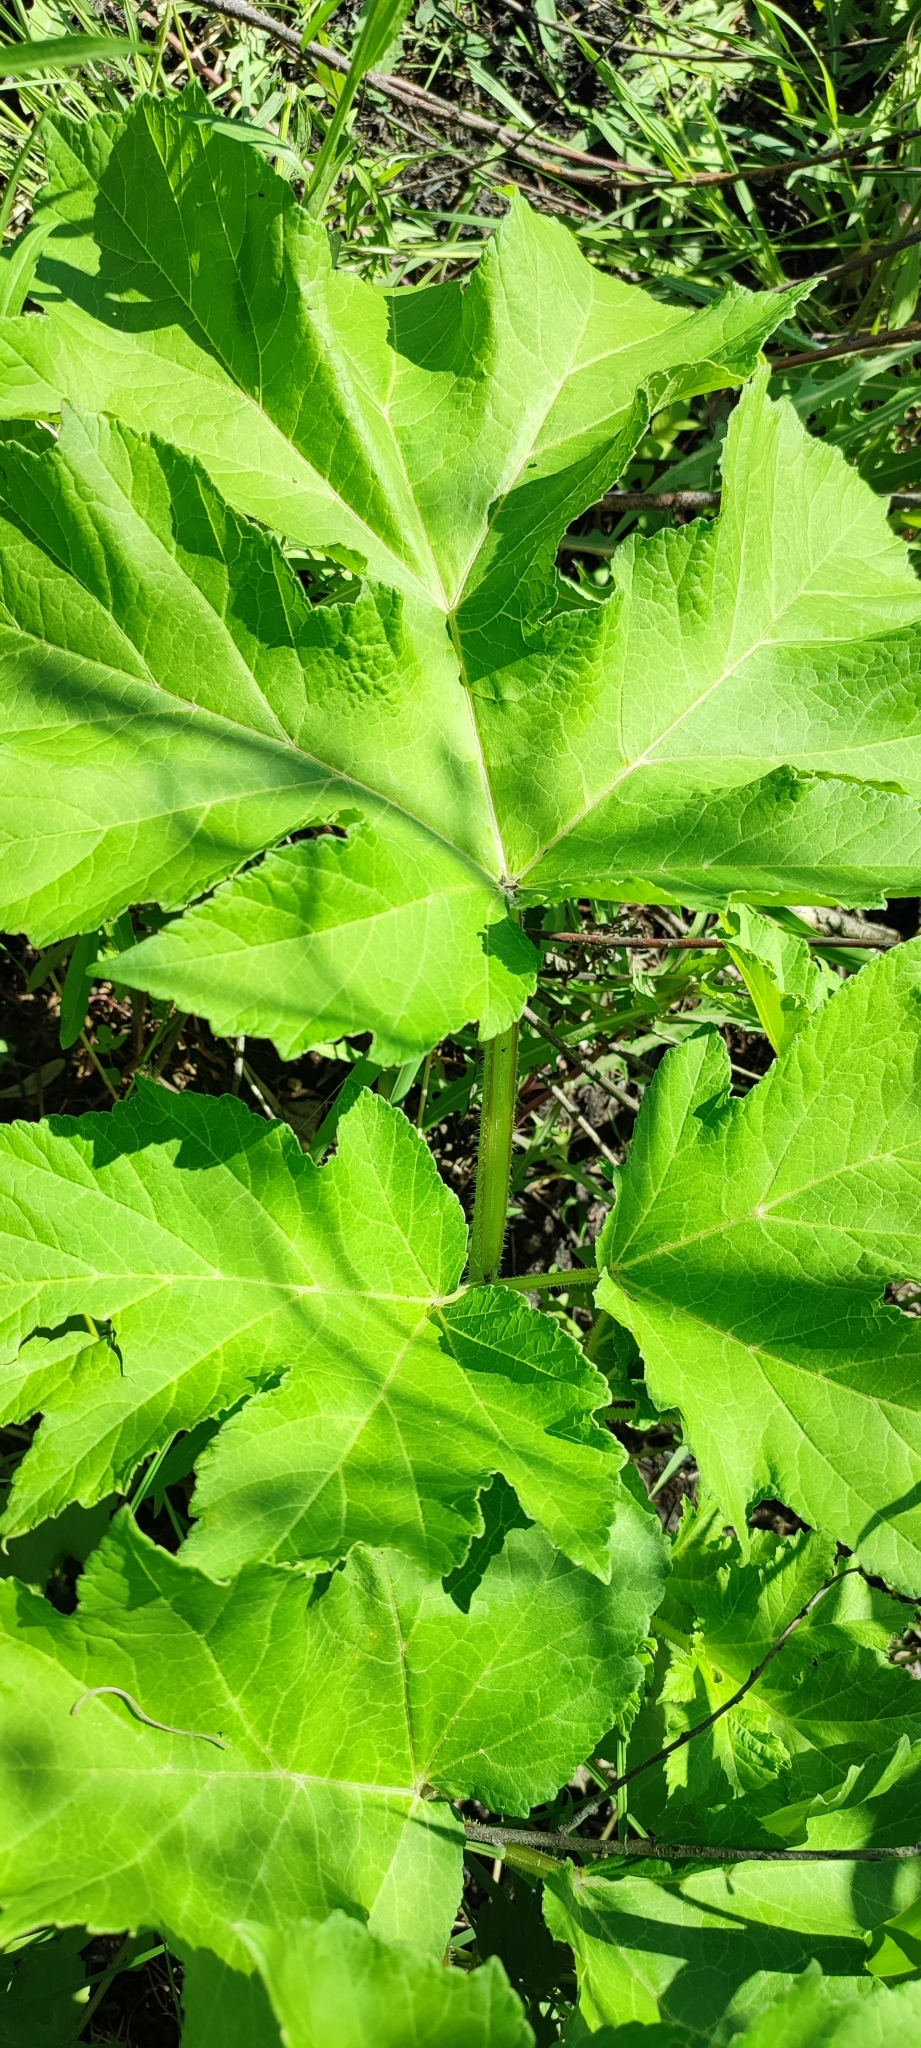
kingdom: Plantae
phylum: Tracheophyta
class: Magnoliopsida
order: Apiales
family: Apiaceae
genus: Heracleum
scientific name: Heracleum sphondylium
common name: Hogweed
